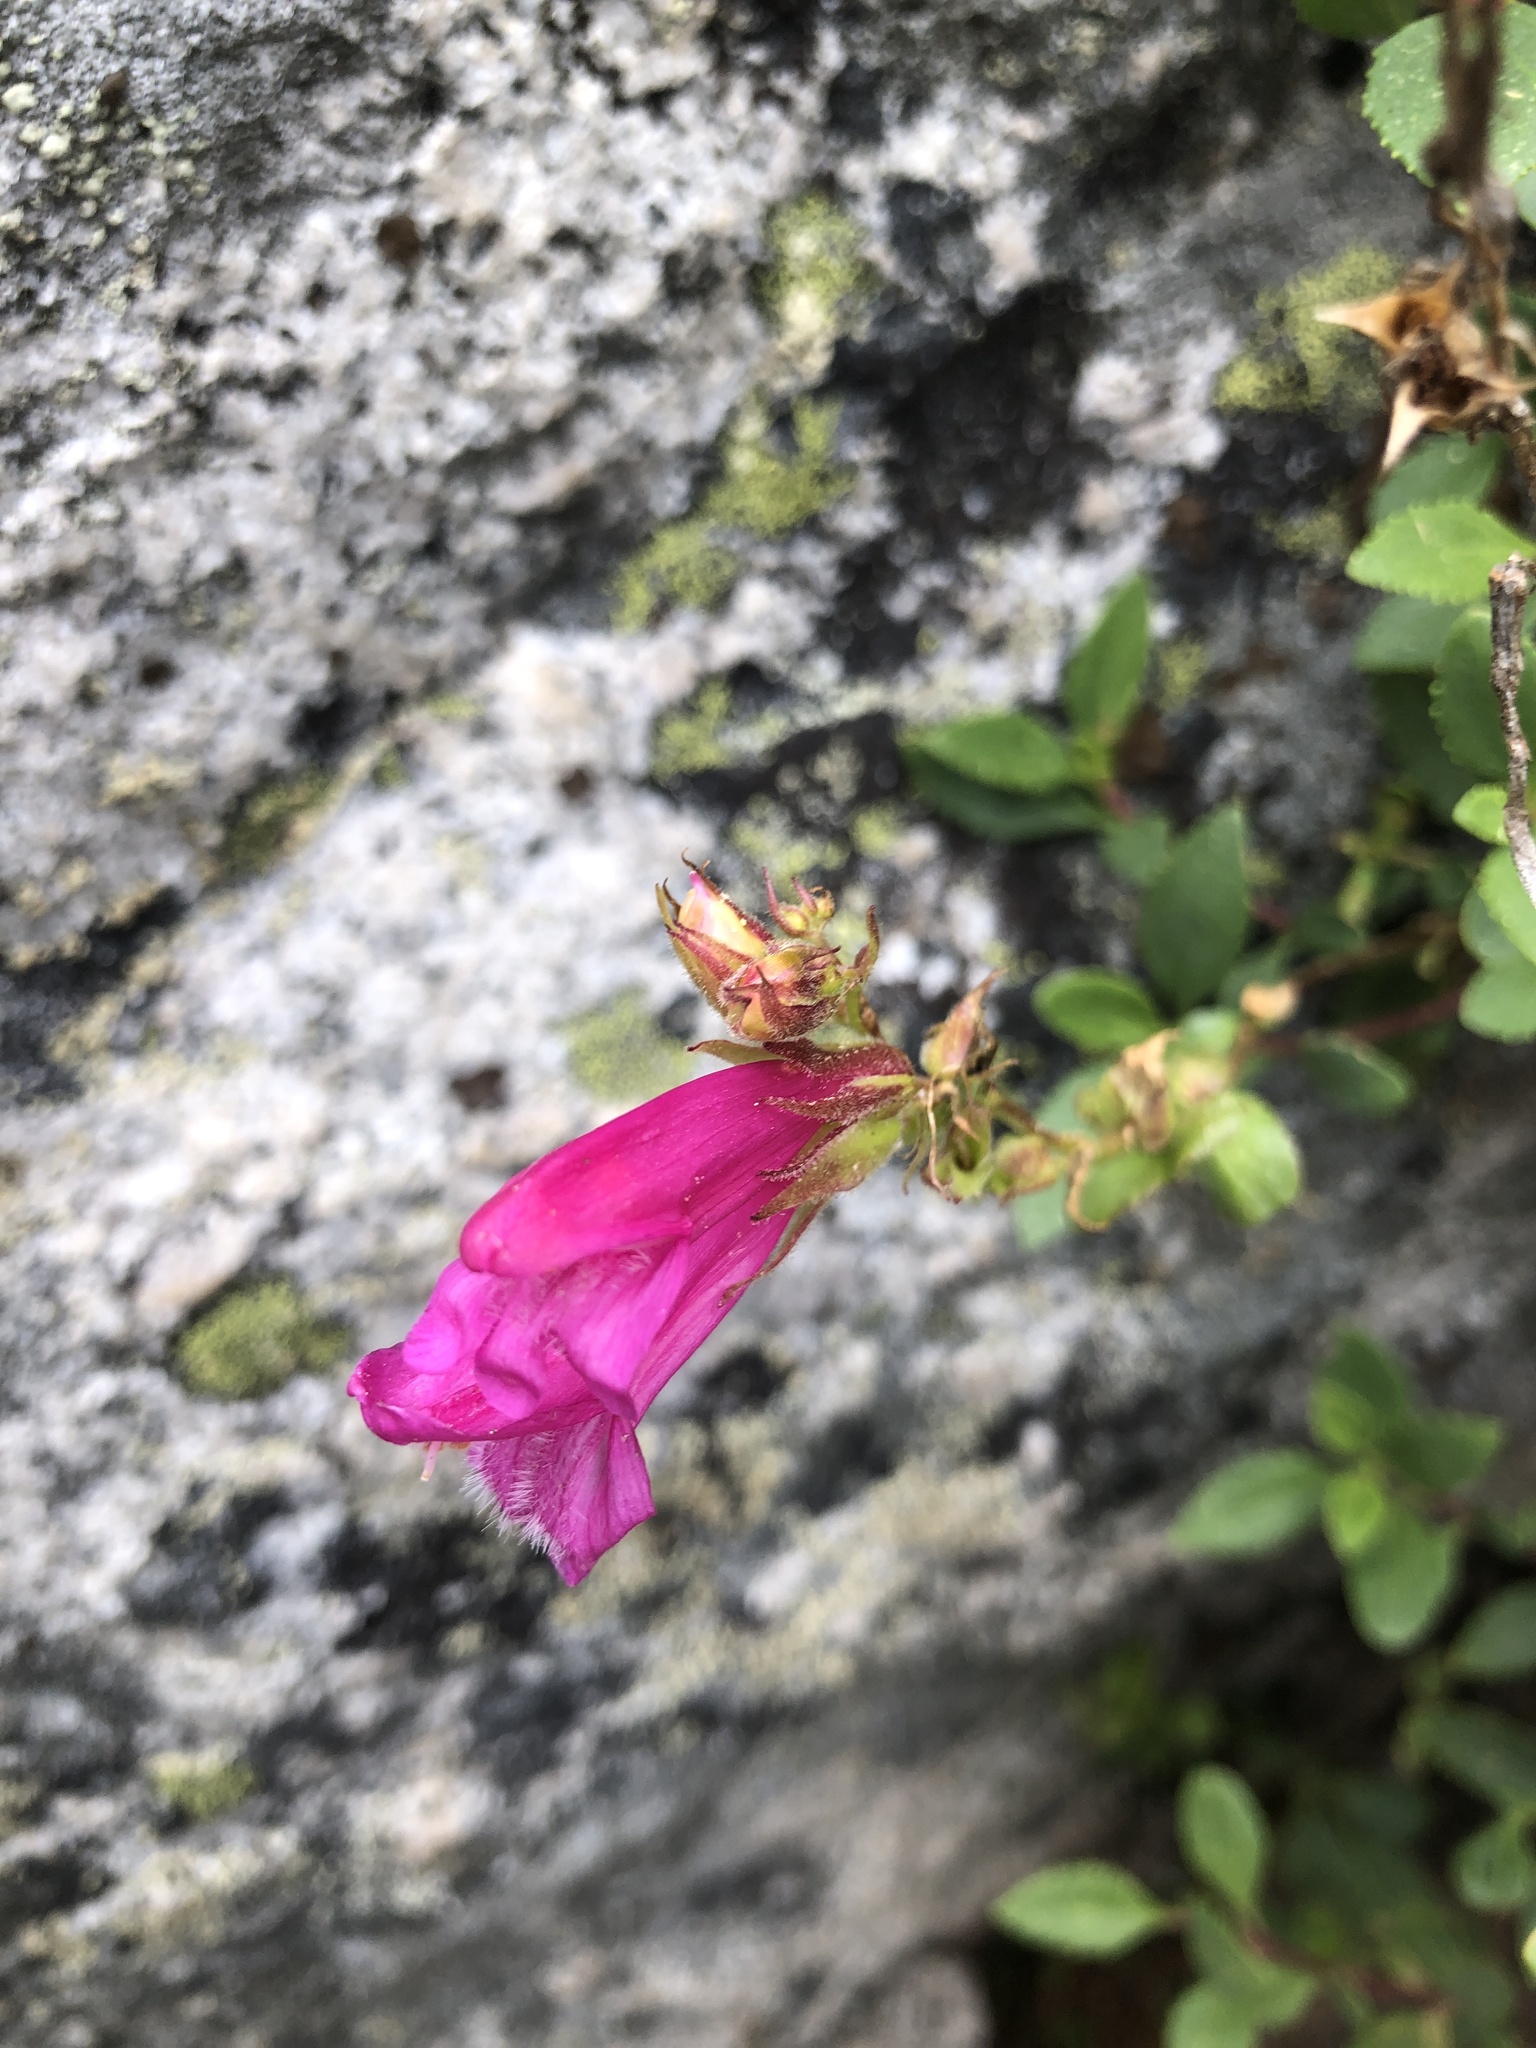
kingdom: Plantae
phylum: Tracheophyta
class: Magnoliopsida
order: Lamiales
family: Plantaginaceae
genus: Penstemon
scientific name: Penstemon newberryi
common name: Mountain-pride
